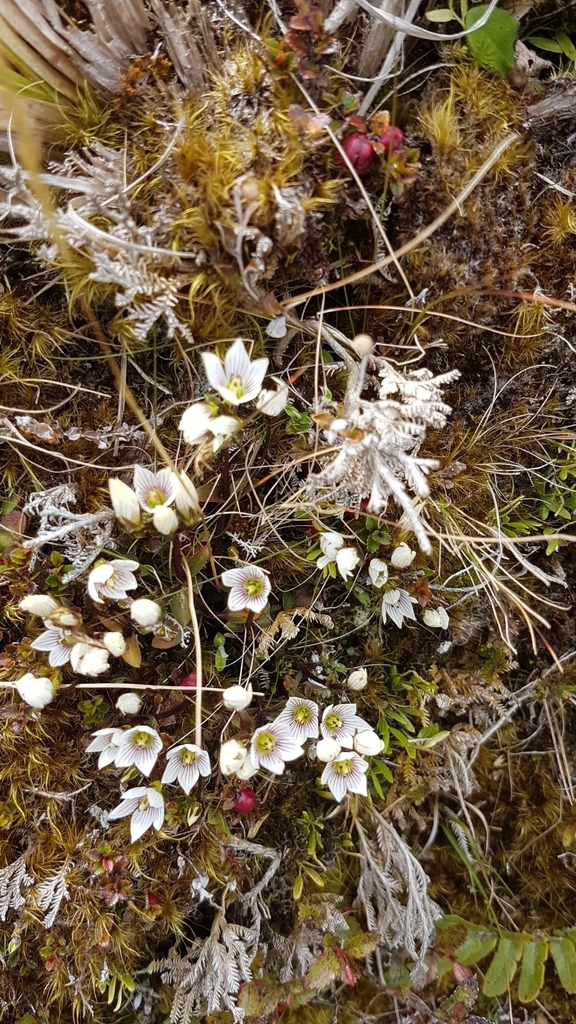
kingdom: Plantae
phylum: Tracheophyta
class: Magnoliopsida
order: Gentianales
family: Gentianaceae
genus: Gentianella
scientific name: Gentianella montana
